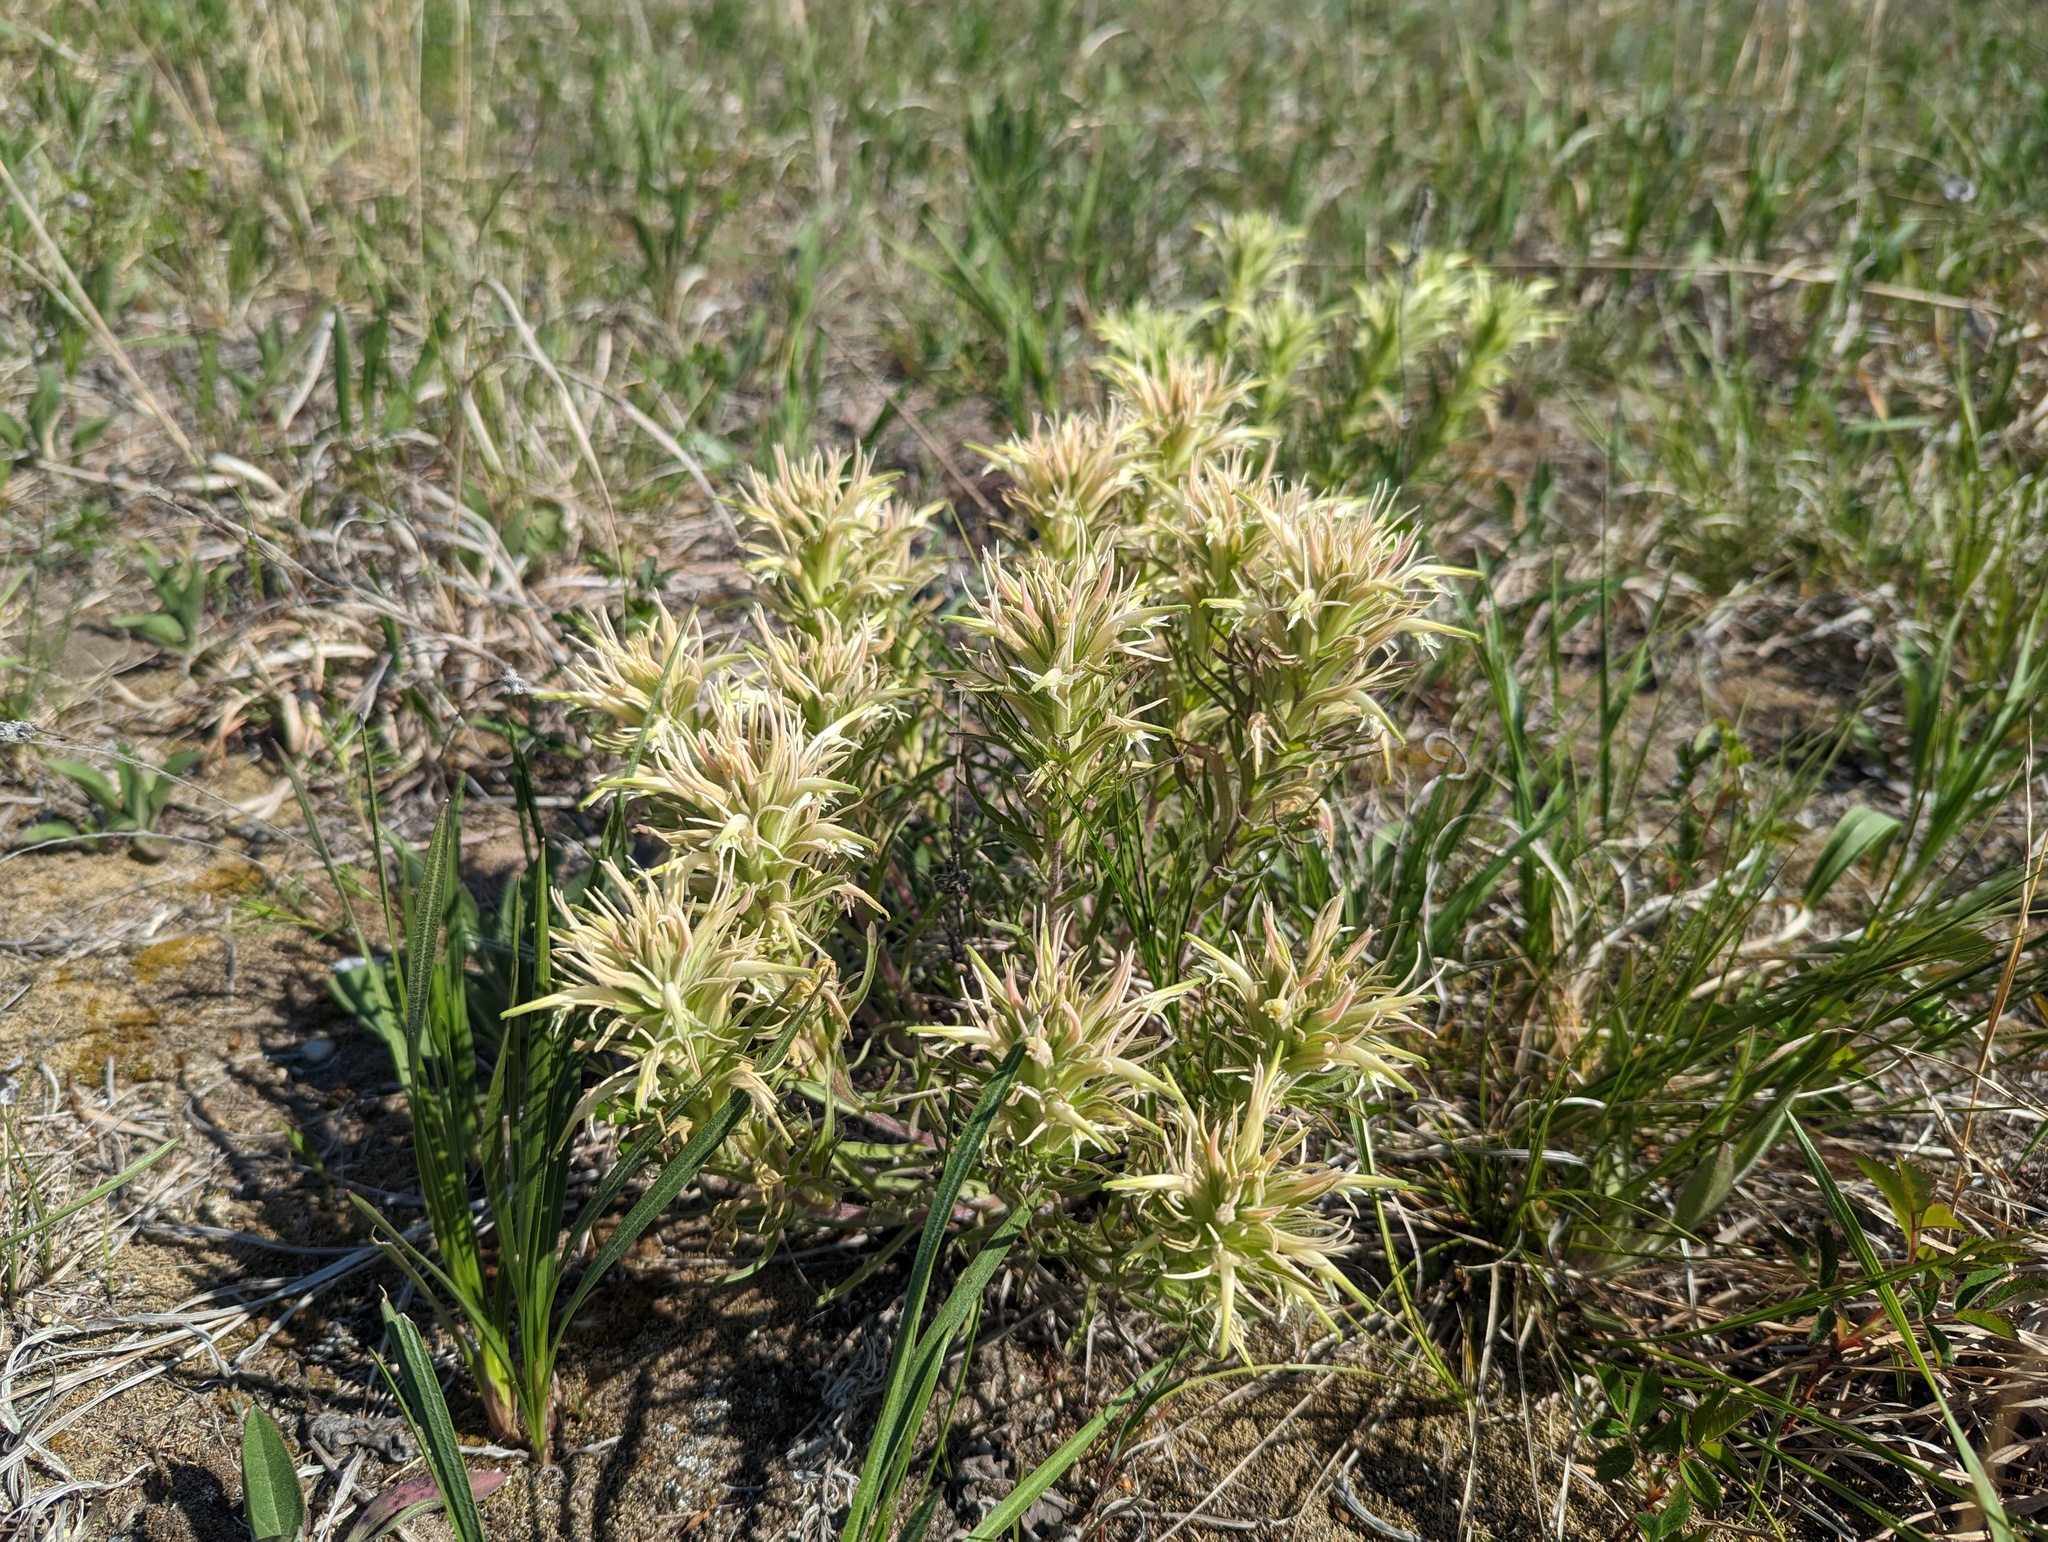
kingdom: Plantae
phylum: Tracheophyta
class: Magnoliopsida
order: Lamiales
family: Orobanchaceae
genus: Castilleja
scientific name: Castilleja sessiliflora
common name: Downy paintbrush
